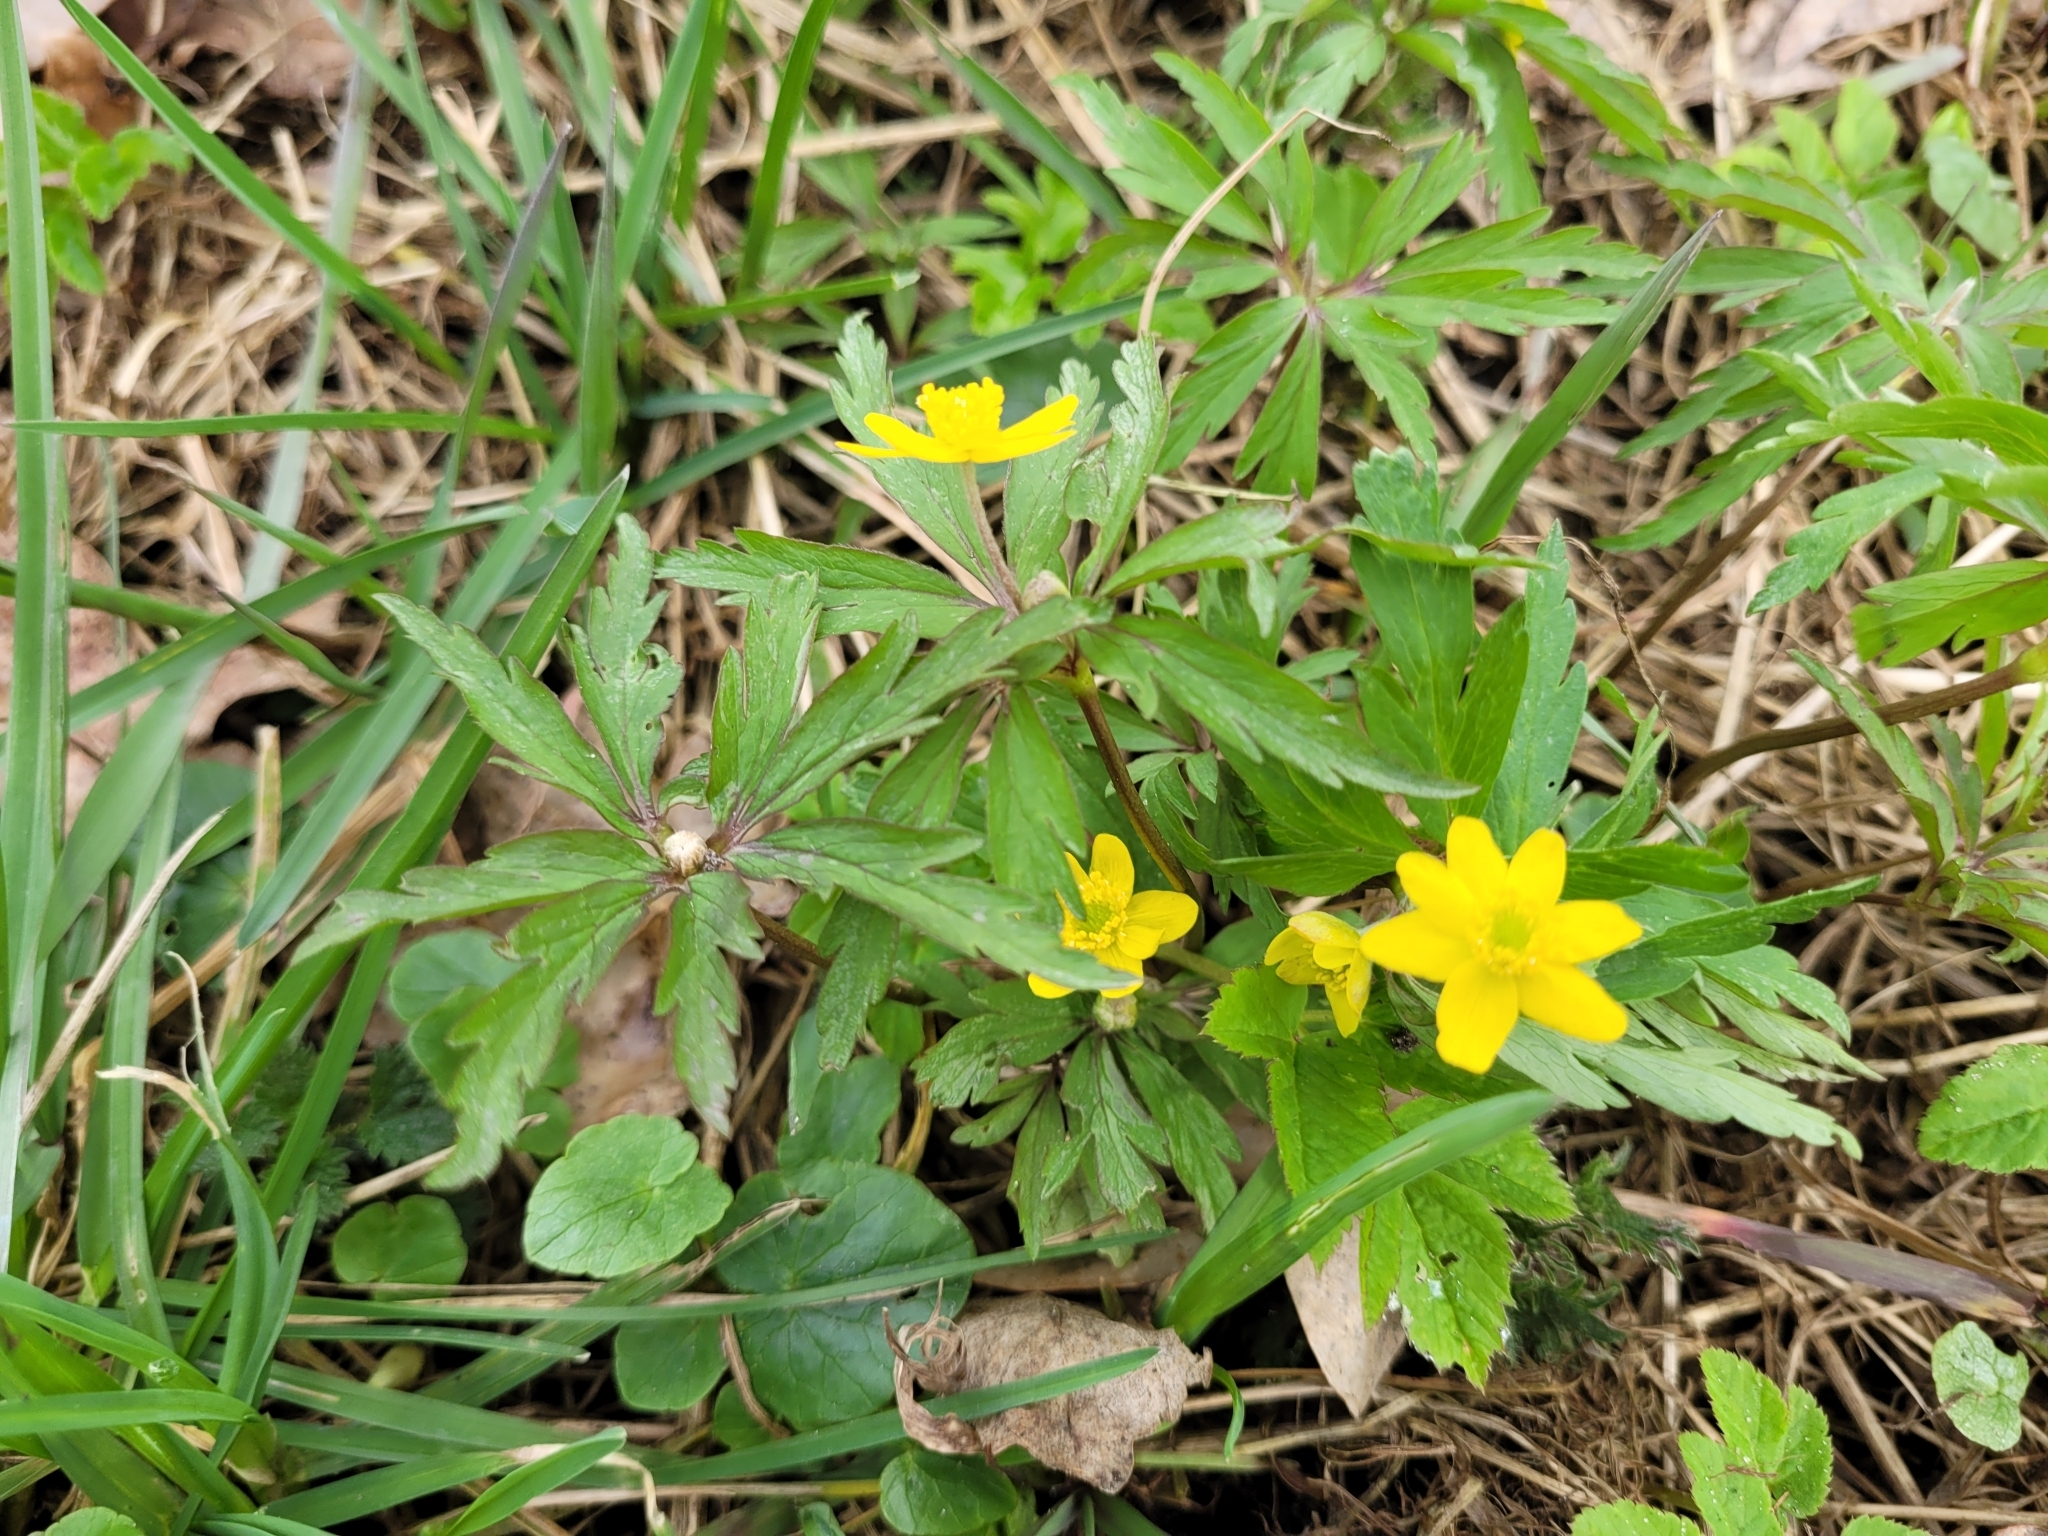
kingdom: Plantae
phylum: Tracheophyta
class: Magnoliopsida
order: Ranunculales
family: Ranunculaceae
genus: Anemone
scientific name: Anemone ranunculoides
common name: Yellow anemone
